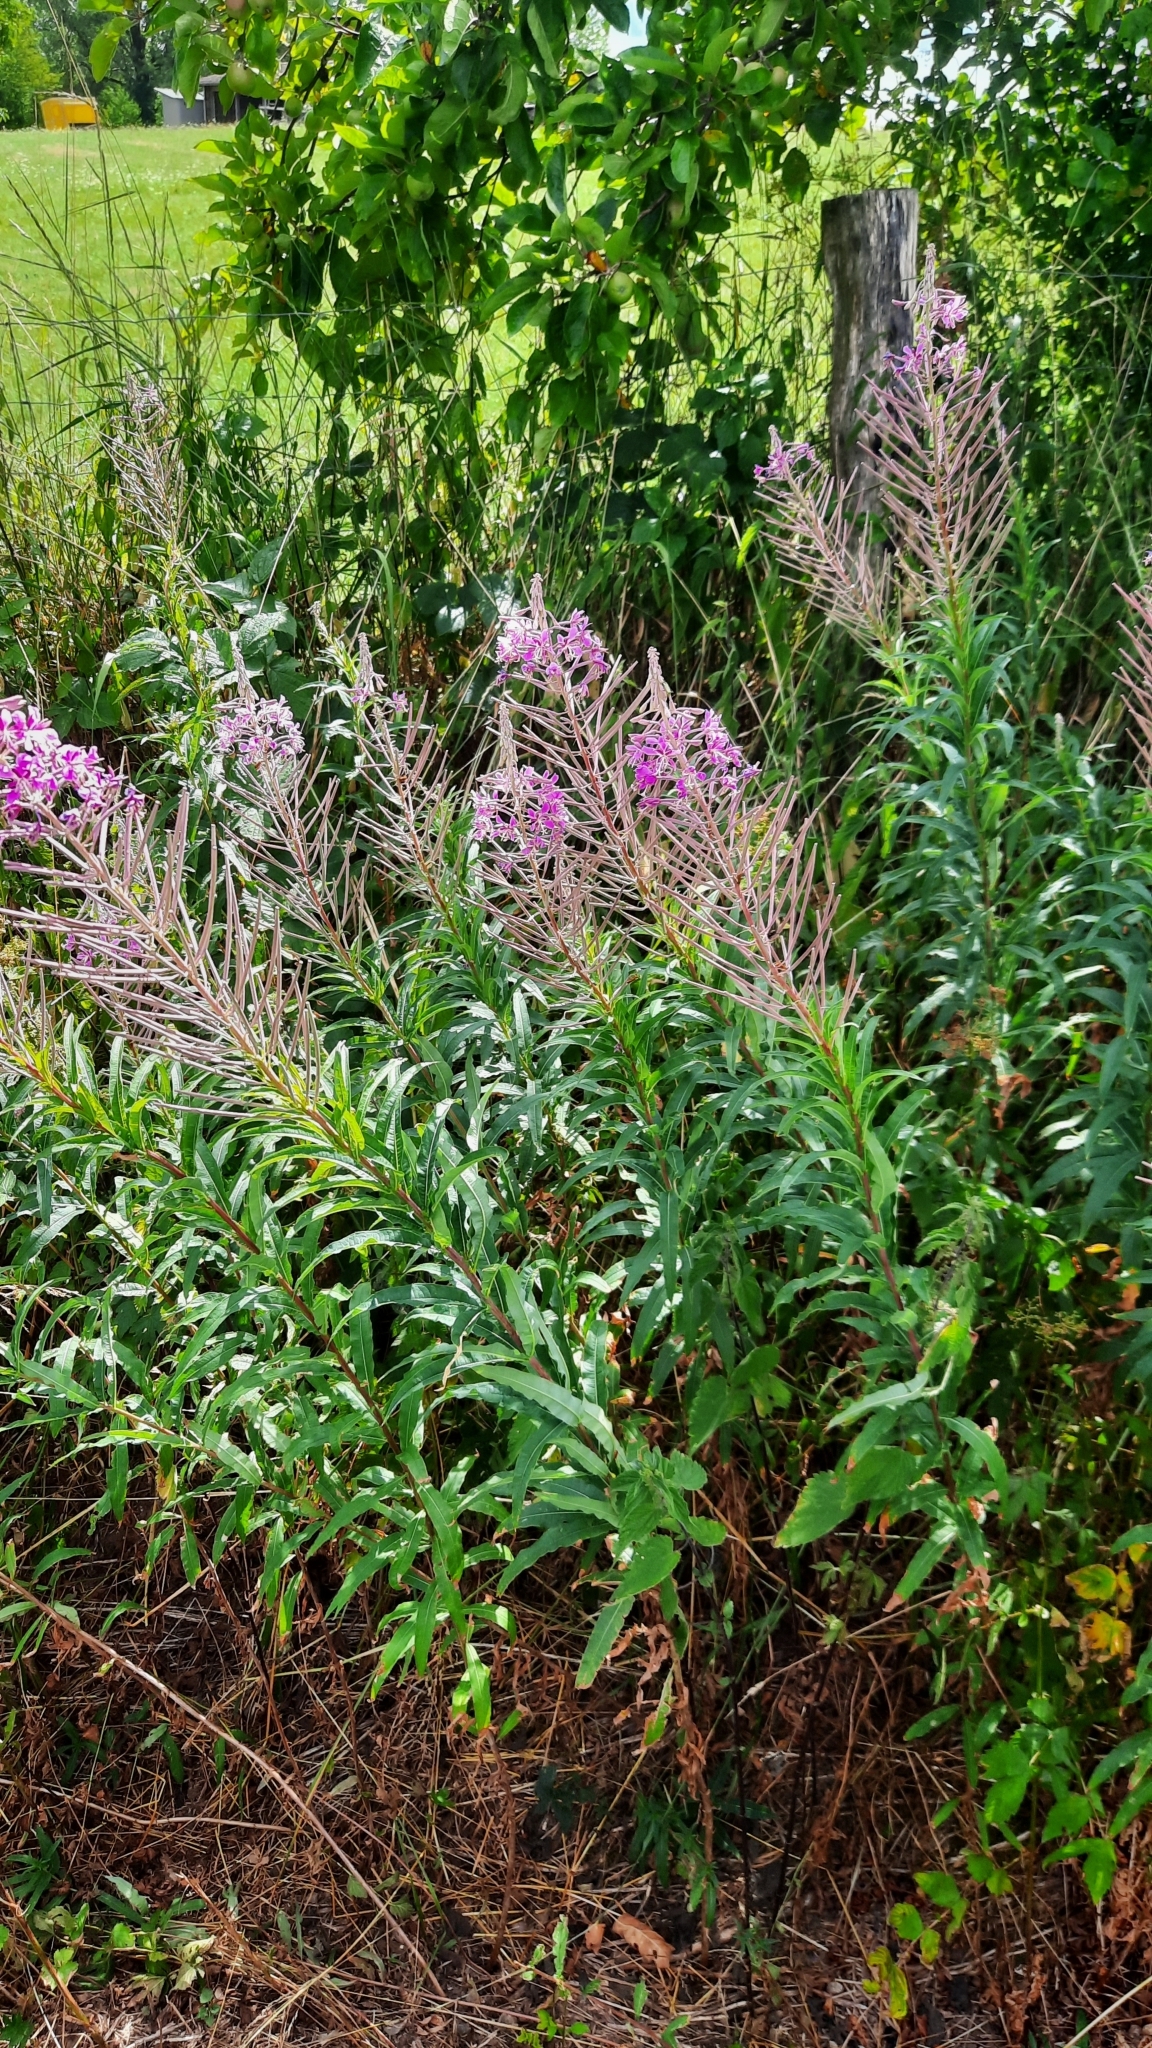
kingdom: Plantae
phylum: Tracheophyta
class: Magnoliopsida
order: Myrtales
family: Onagraceae
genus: Chamaenerion
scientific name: Chamaenerion angustifolium
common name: Fireweed
